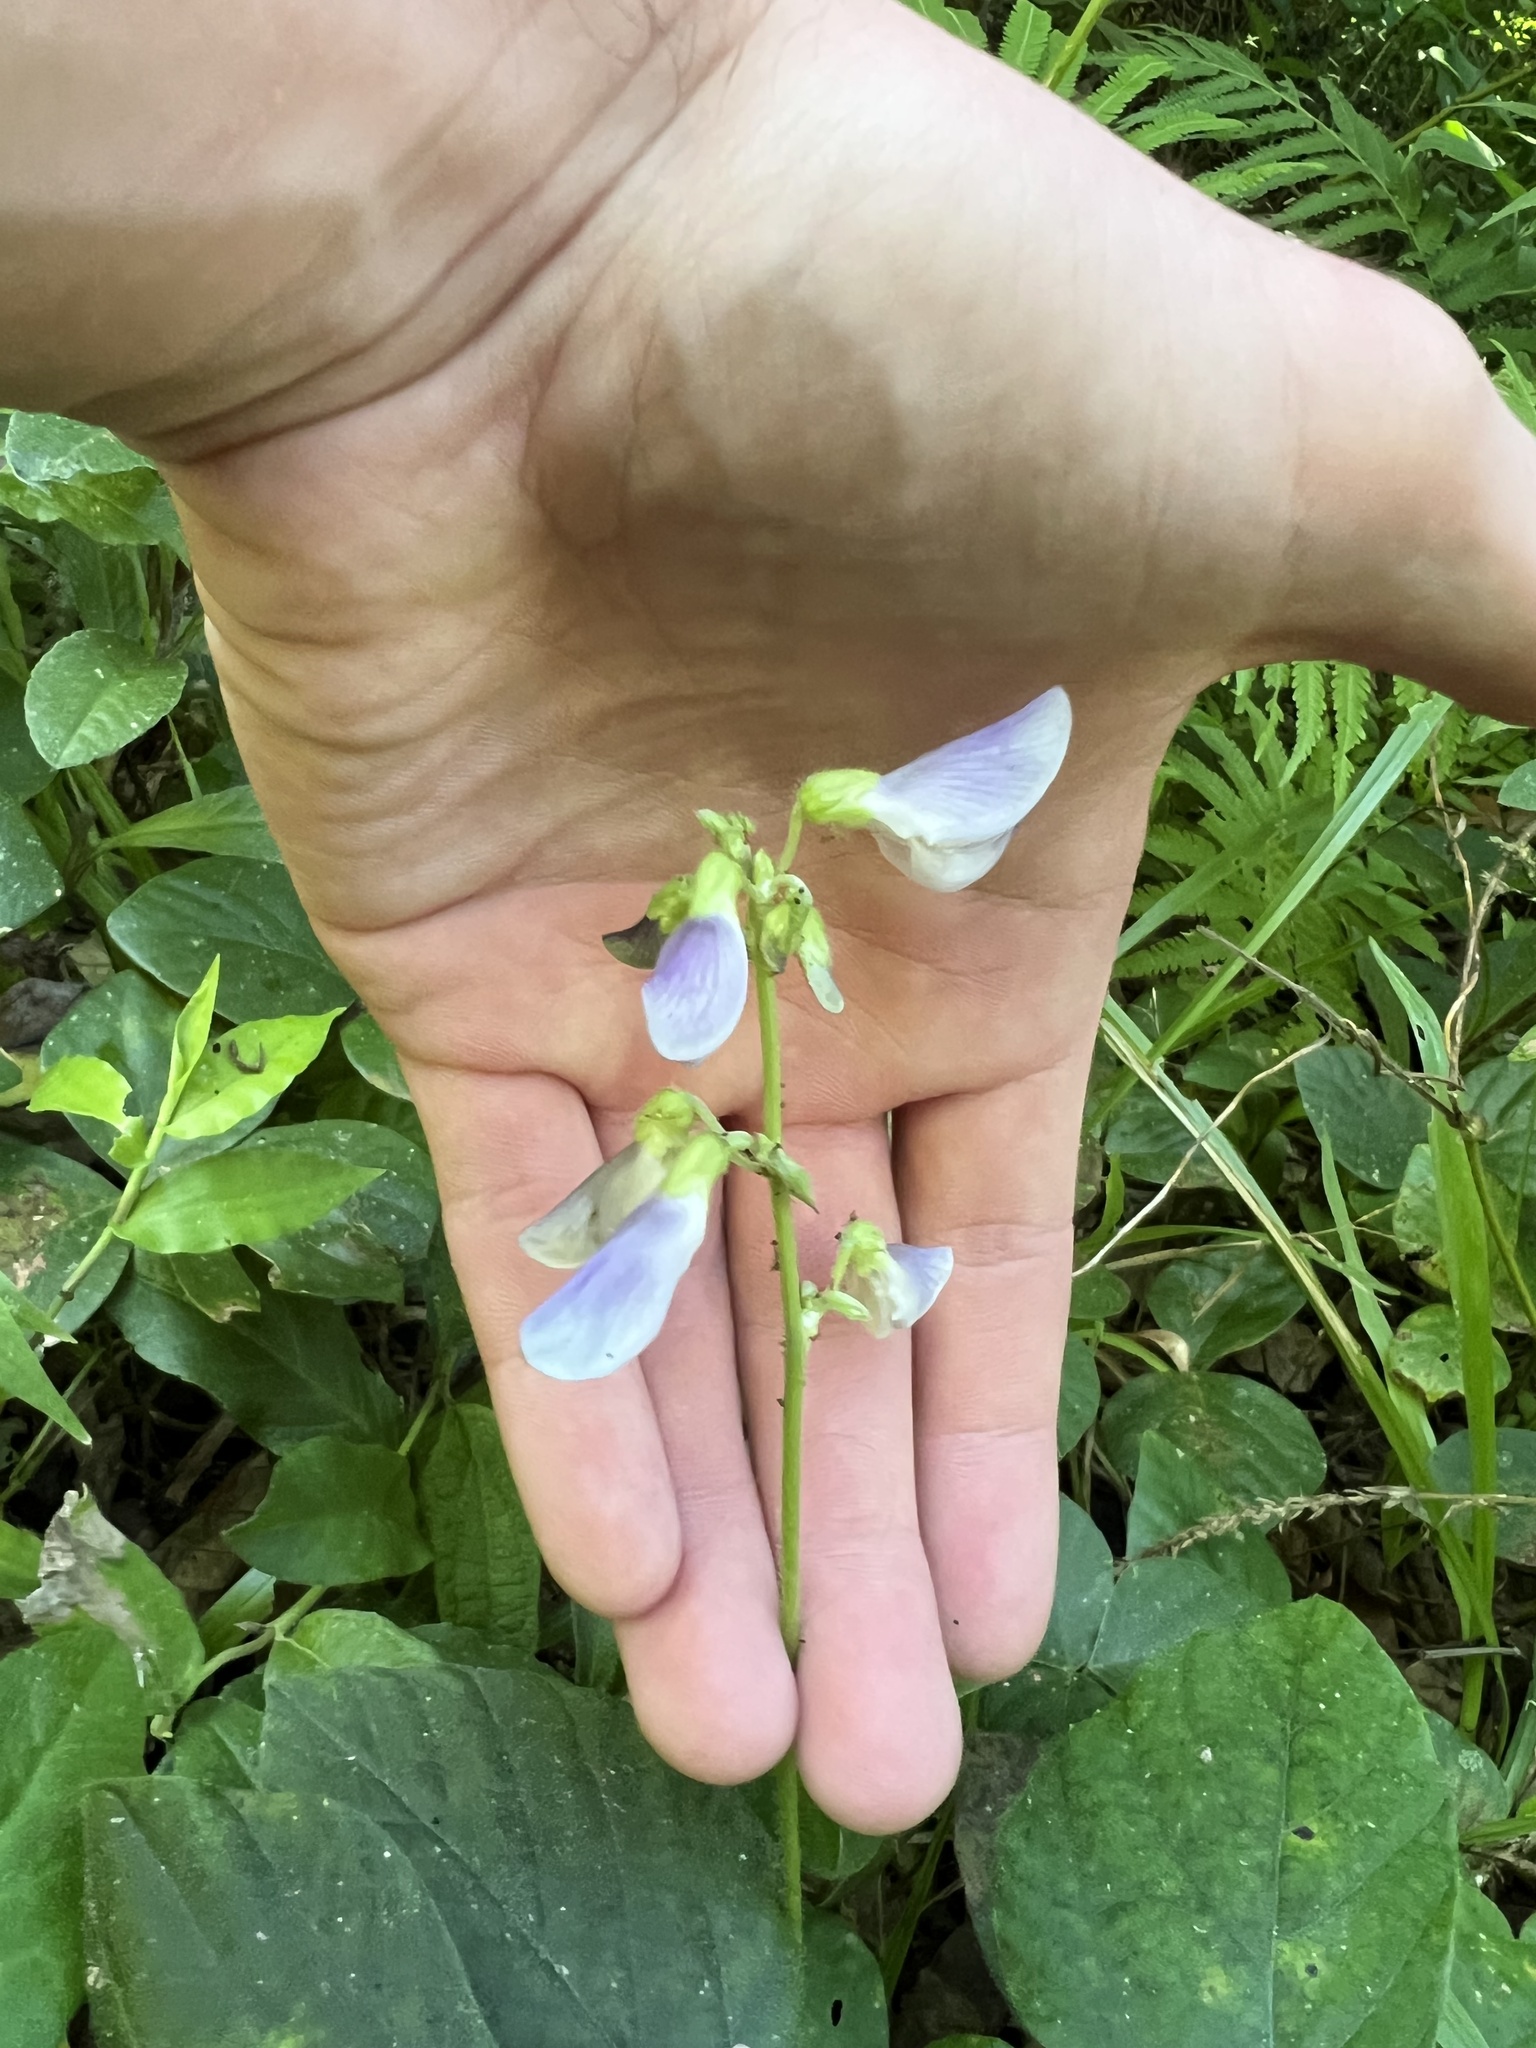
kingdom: Plantae
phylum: Tracheophyta
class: Magnoliopsida
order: Fabales
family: Fabaceae
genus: Neustanthus
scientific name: Neustanthus phaseoloides
